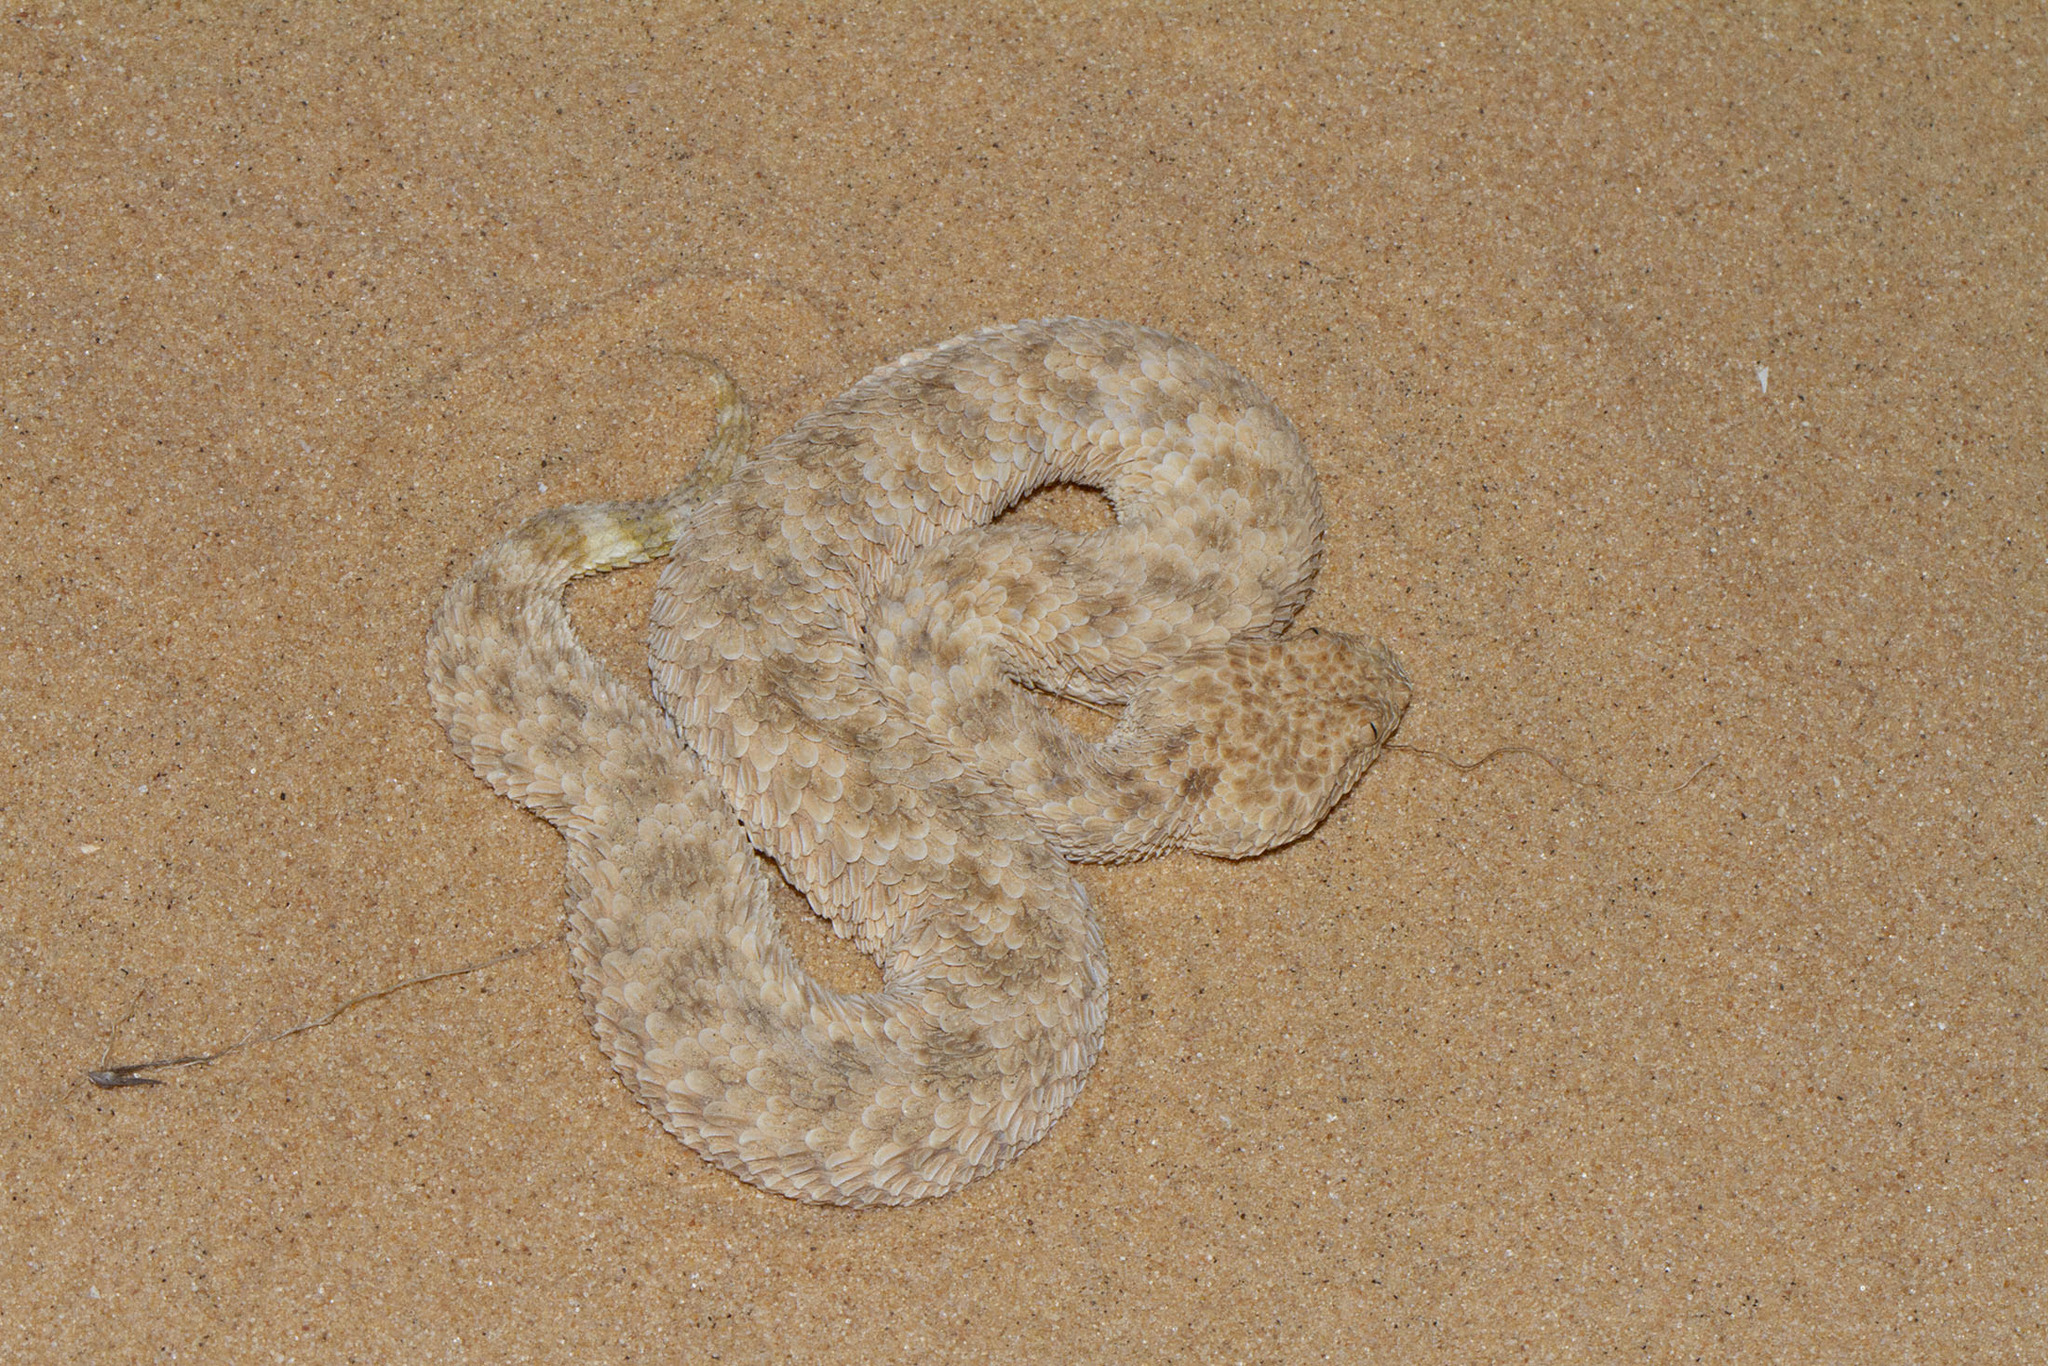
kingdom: Animalia
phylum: Chordata
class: Squamata
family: Viperidae
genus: Cerastes
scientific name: Cerastes vipera
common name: Sahara sand viper
